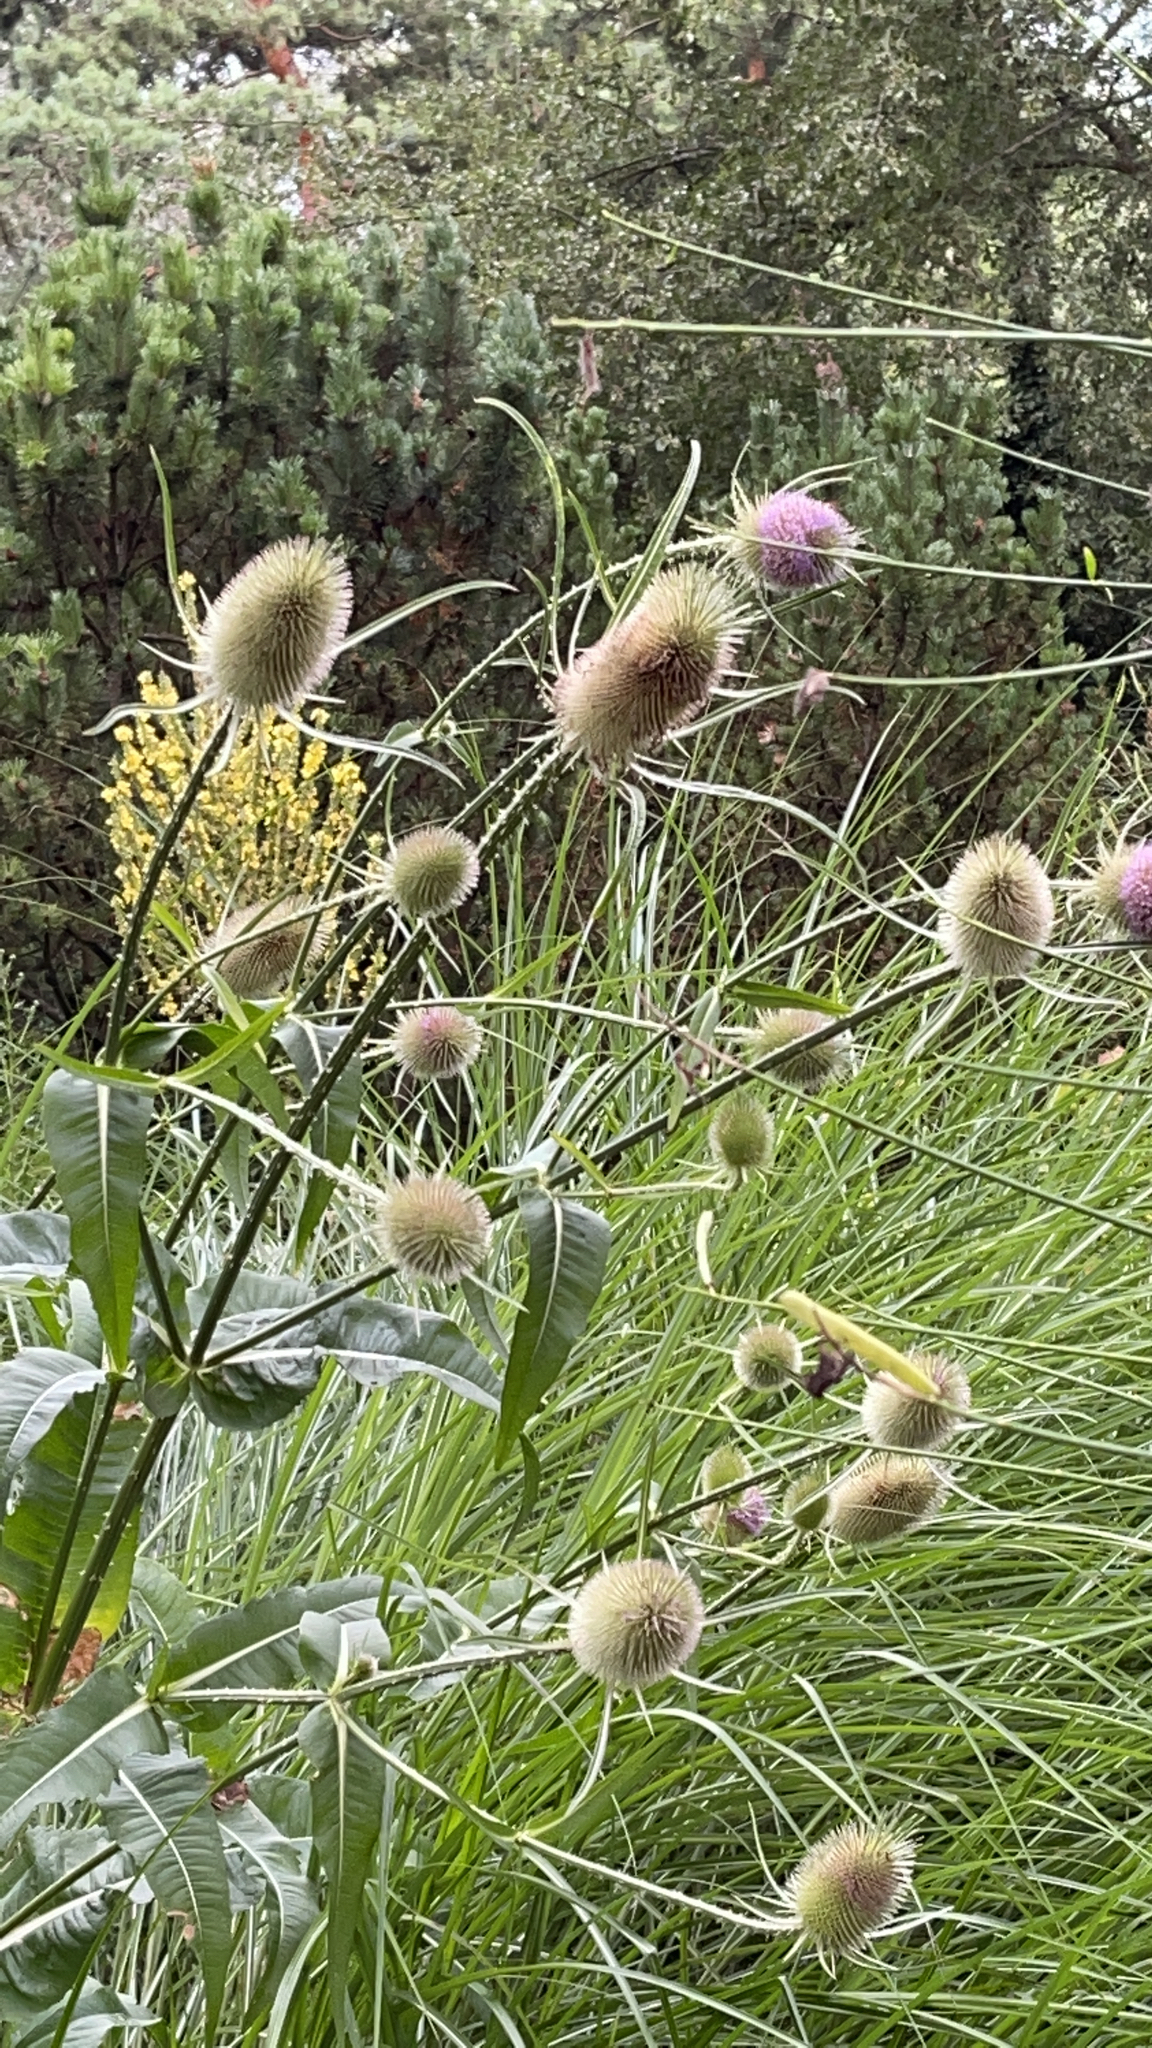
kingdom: Plantae
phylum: Tracheophyta
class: Magnoliopsida
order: Dipsacales
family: Caprifoliaceae
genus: Dipsacus
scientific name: Dipsacus fullonum
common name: Teasel
